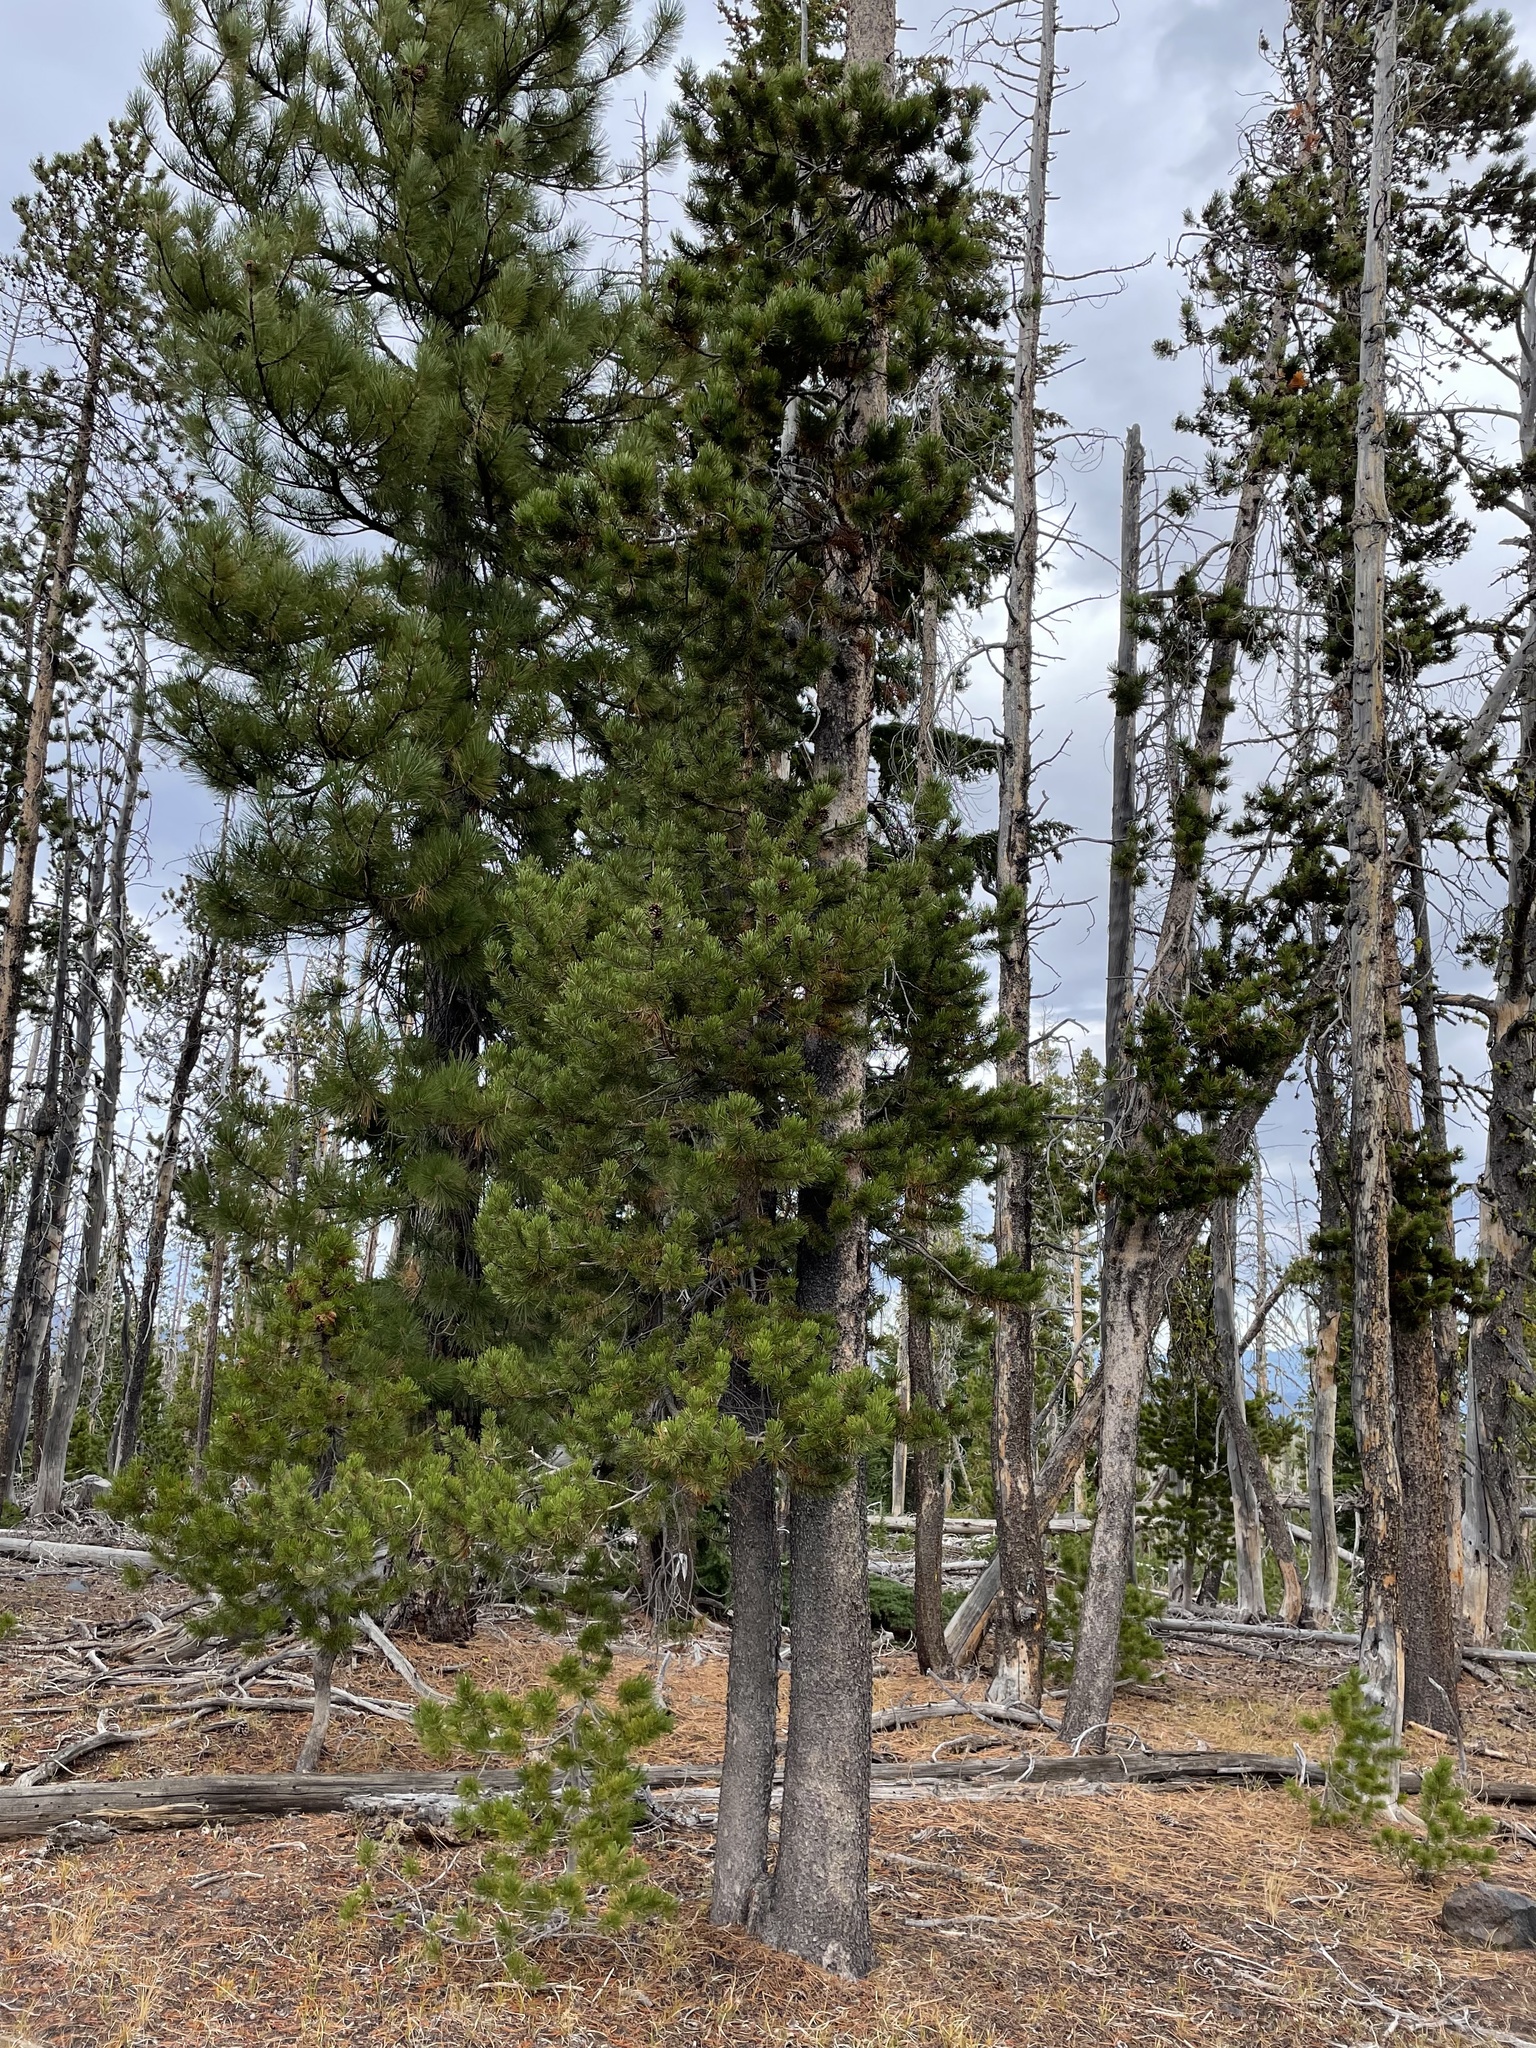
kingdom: Plantae
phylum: Tracheophyta
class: Pinopsida
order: Pinales
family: Pinaceae
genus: Pinus
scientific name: Pinus contorta
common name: Lodgepole pine
